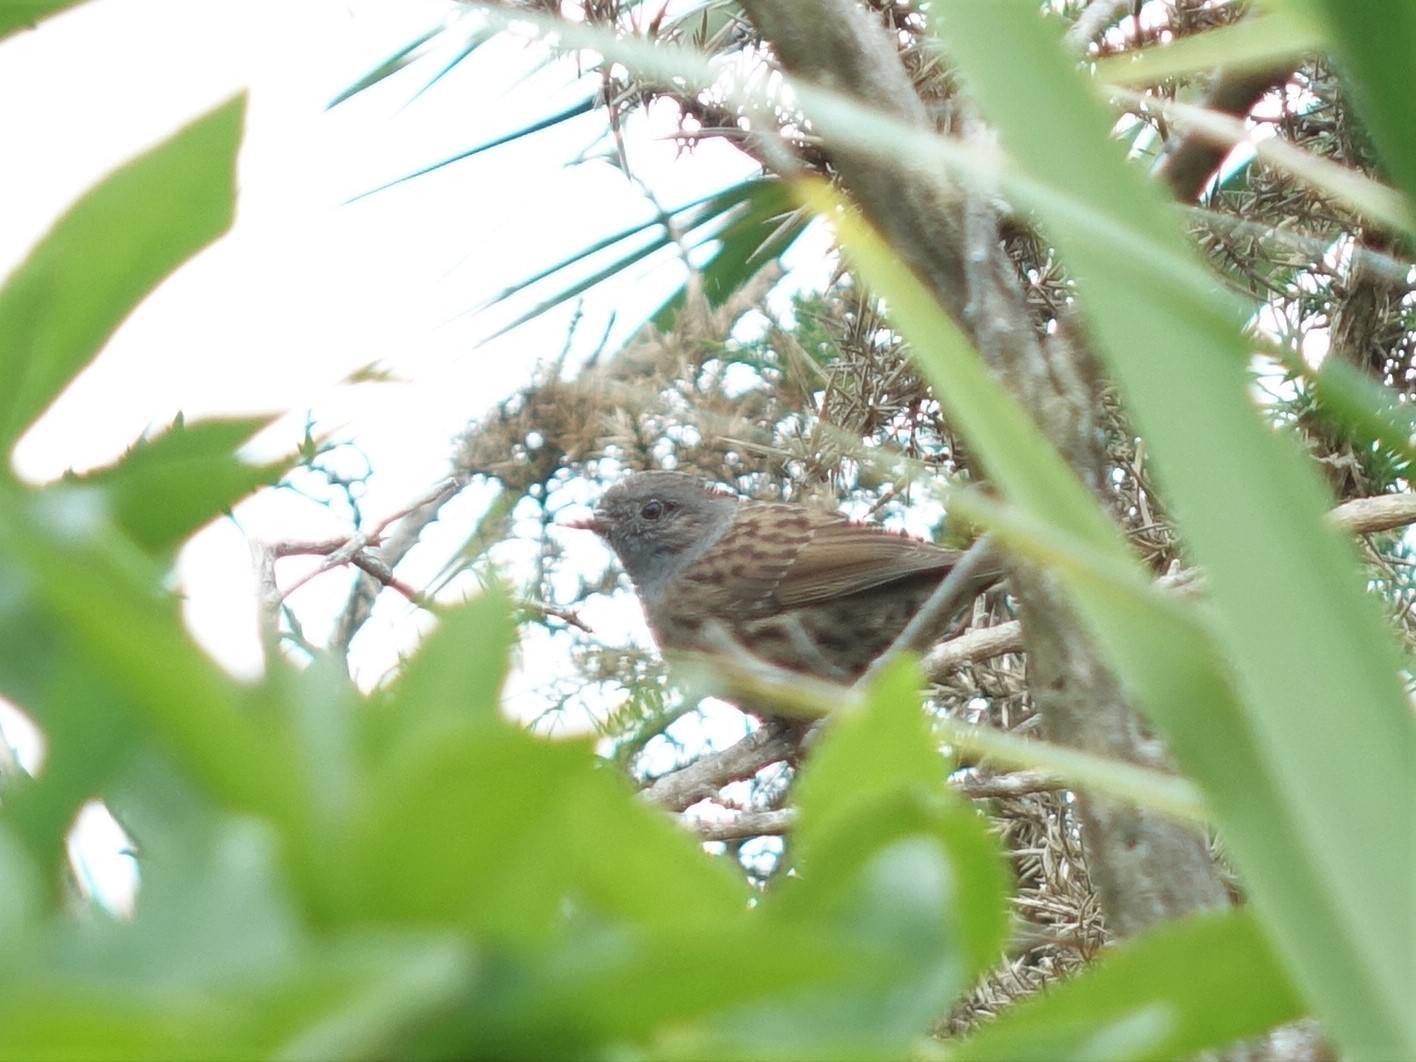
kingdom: Animalia
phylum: Chordata
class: Aves
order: Passeriformes
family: Prunellidae
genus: Prunella
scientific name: Prunella modularis
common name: Dunnock
